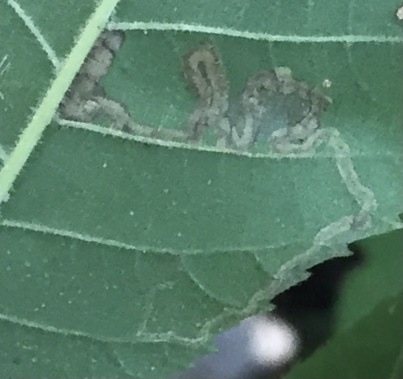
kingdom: Animalia
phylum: Arthropoda
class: Insecta
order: Lepidoptera
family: Nepticulidae
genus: Stigmella
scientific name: Stigmella caryaefoliella
